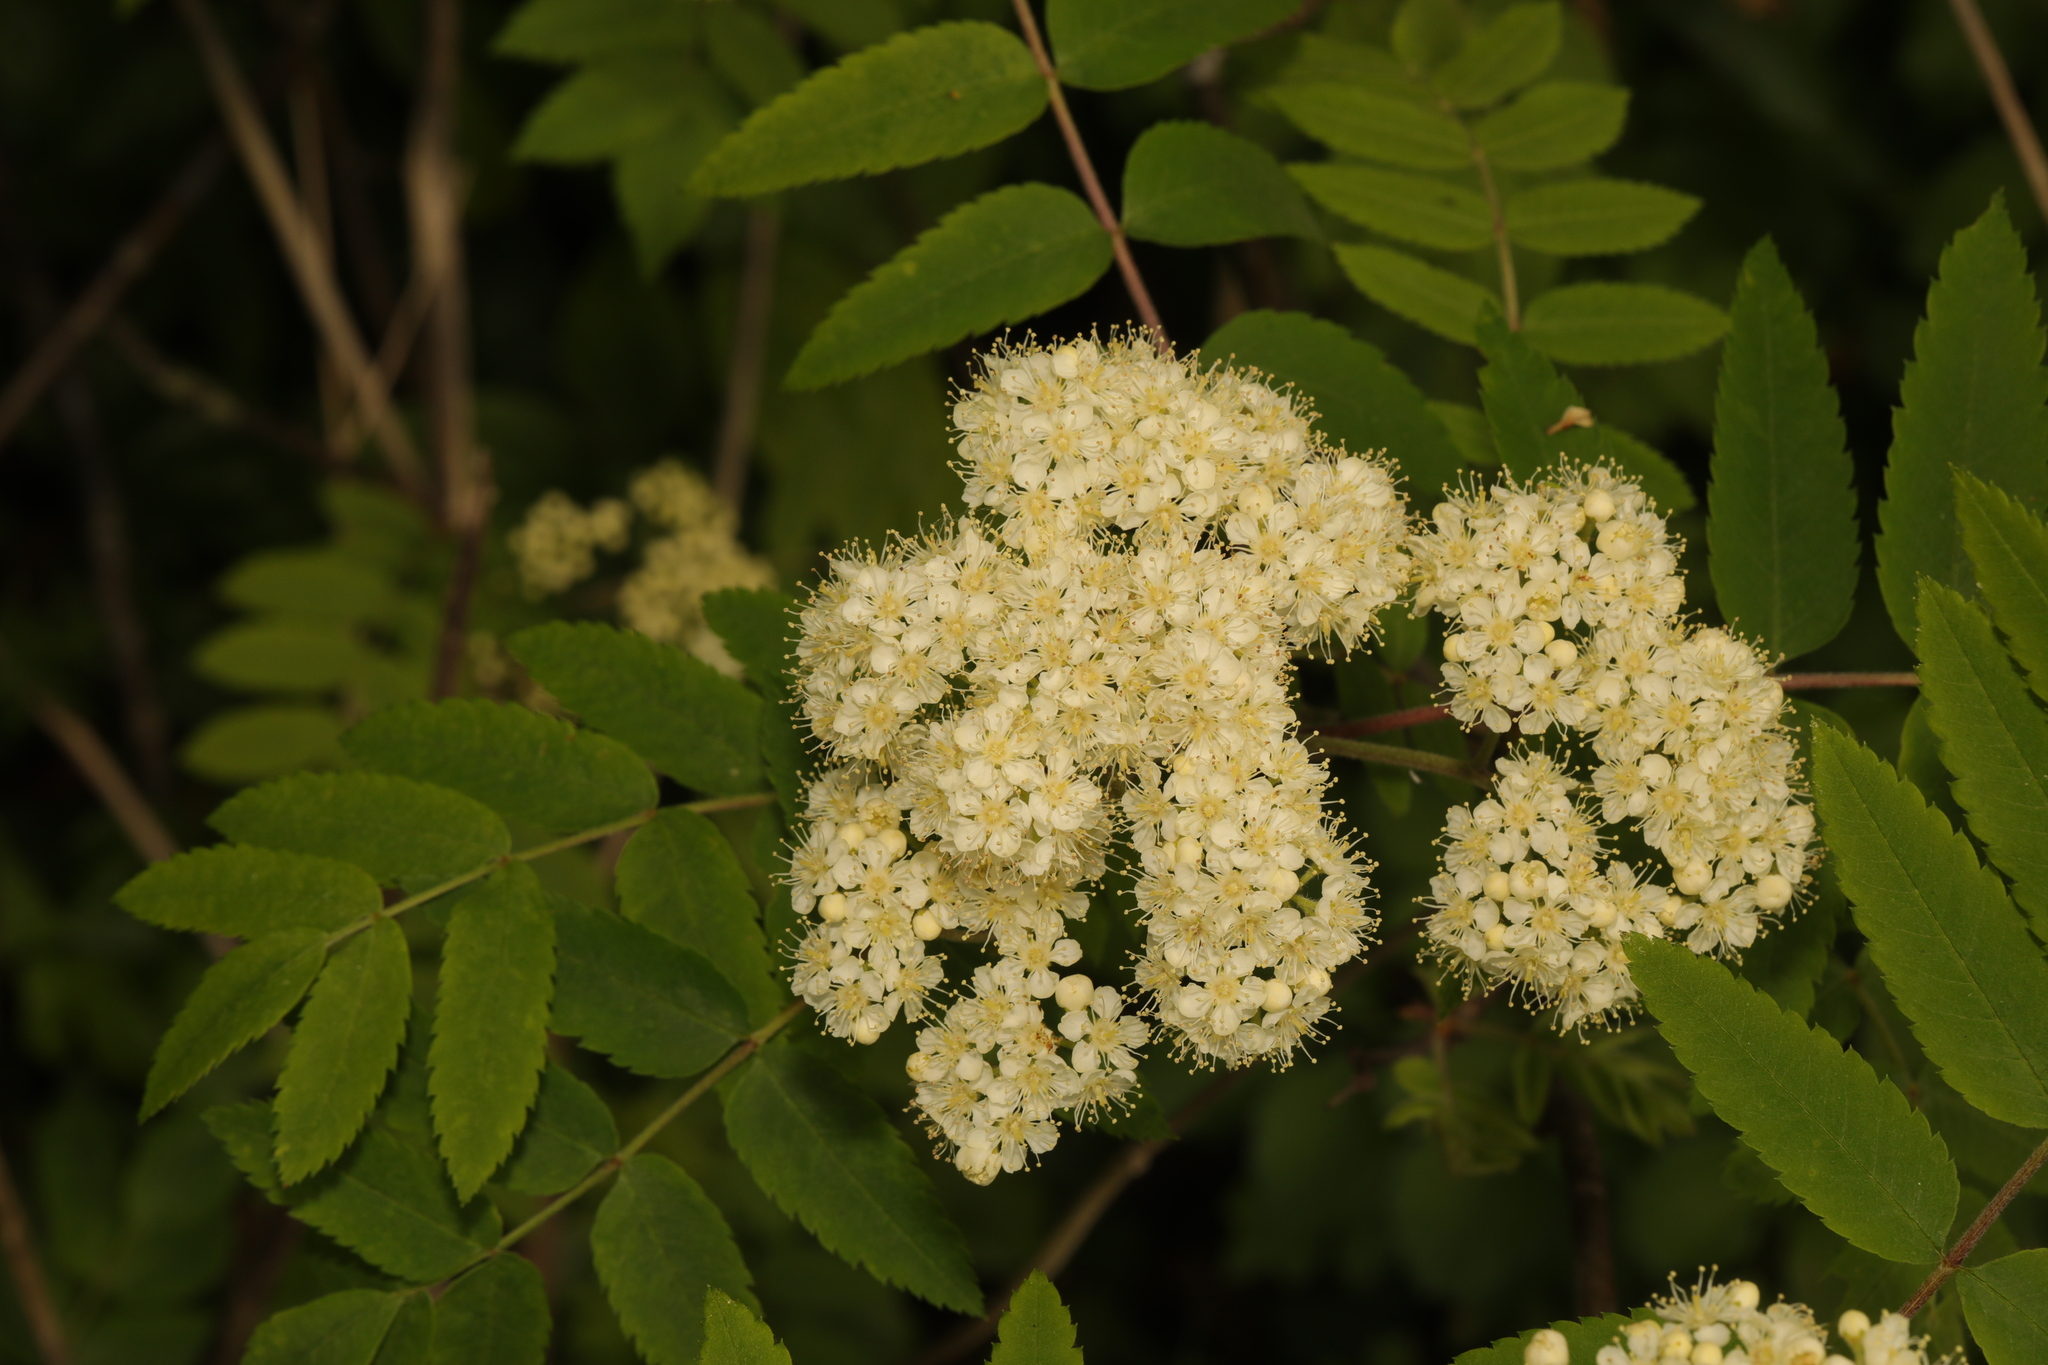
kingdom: Plantae
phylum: Tracheophyta
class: Magnoliopsida
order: Rosales
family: Rosaceae
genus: Sorbus
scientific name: Sorbus aucuparia
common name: Rowan
